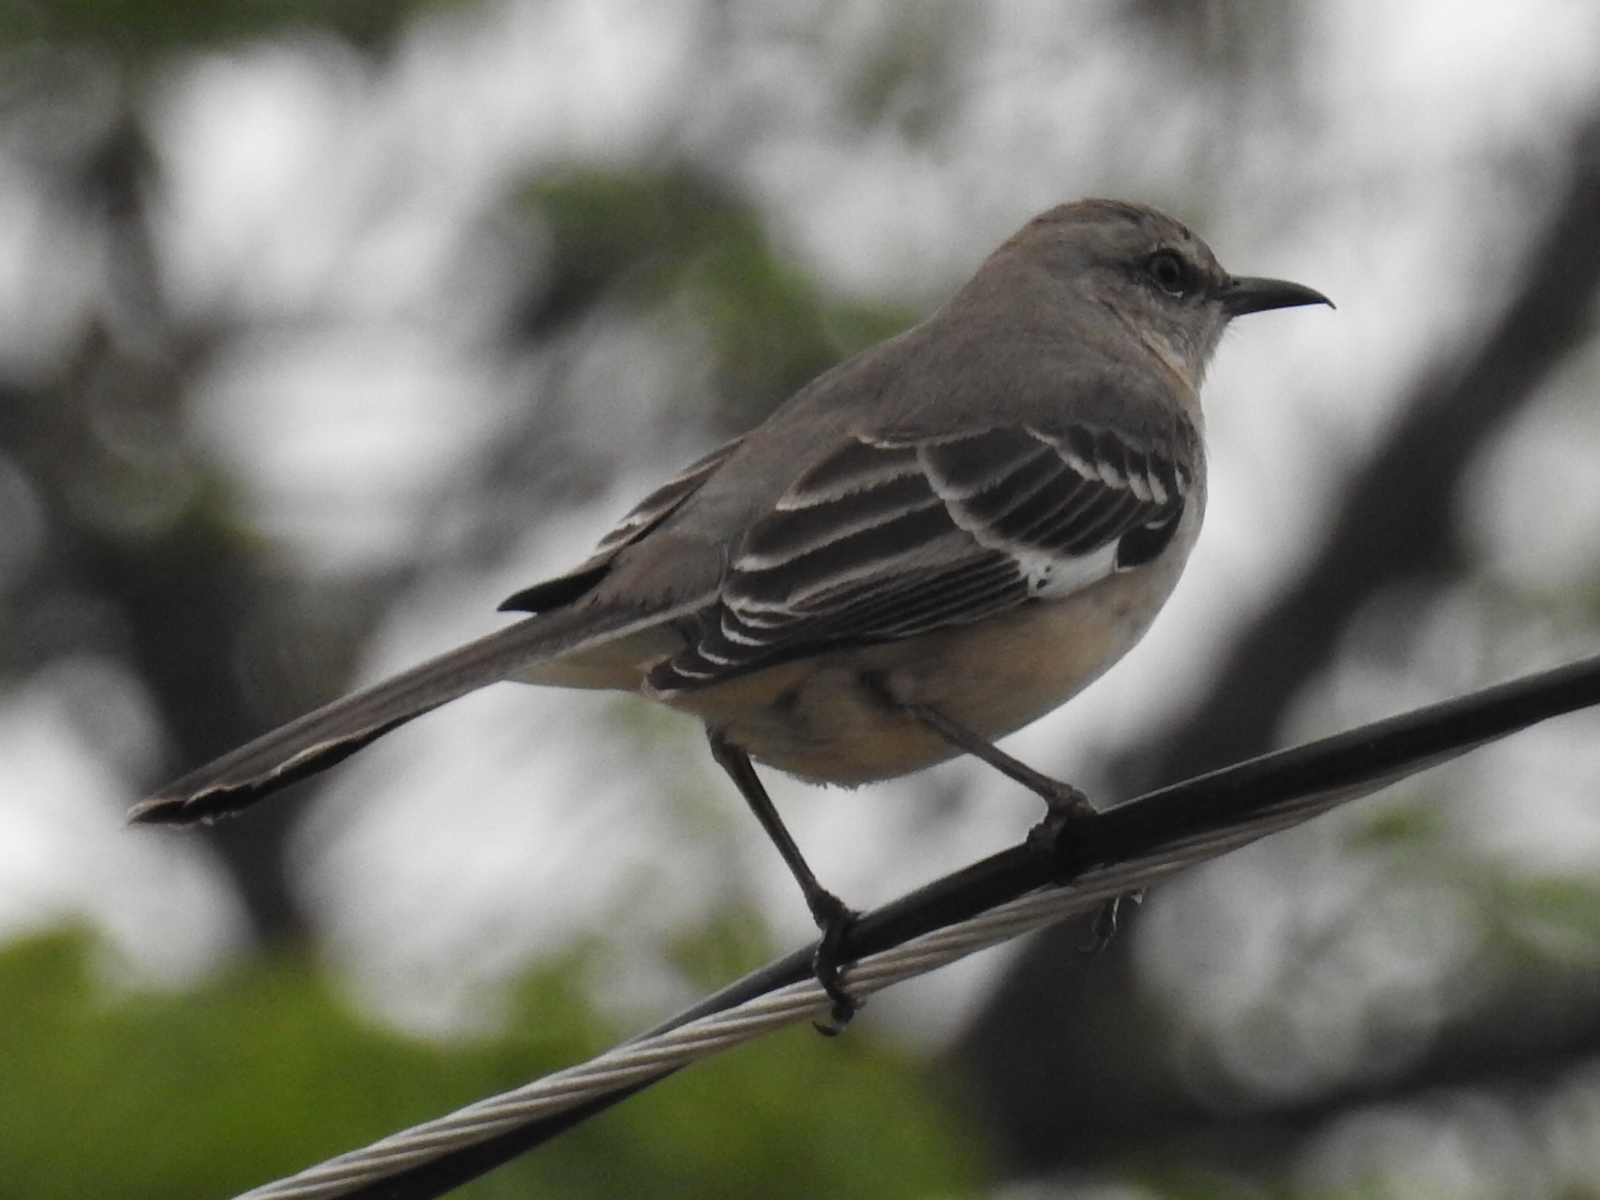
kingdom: Animalia
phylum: Chordata
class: Aves
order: Passeriformes
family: Mimidae
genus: Mimus
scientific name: Mimus polyglottos
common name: Northern mockingbird
